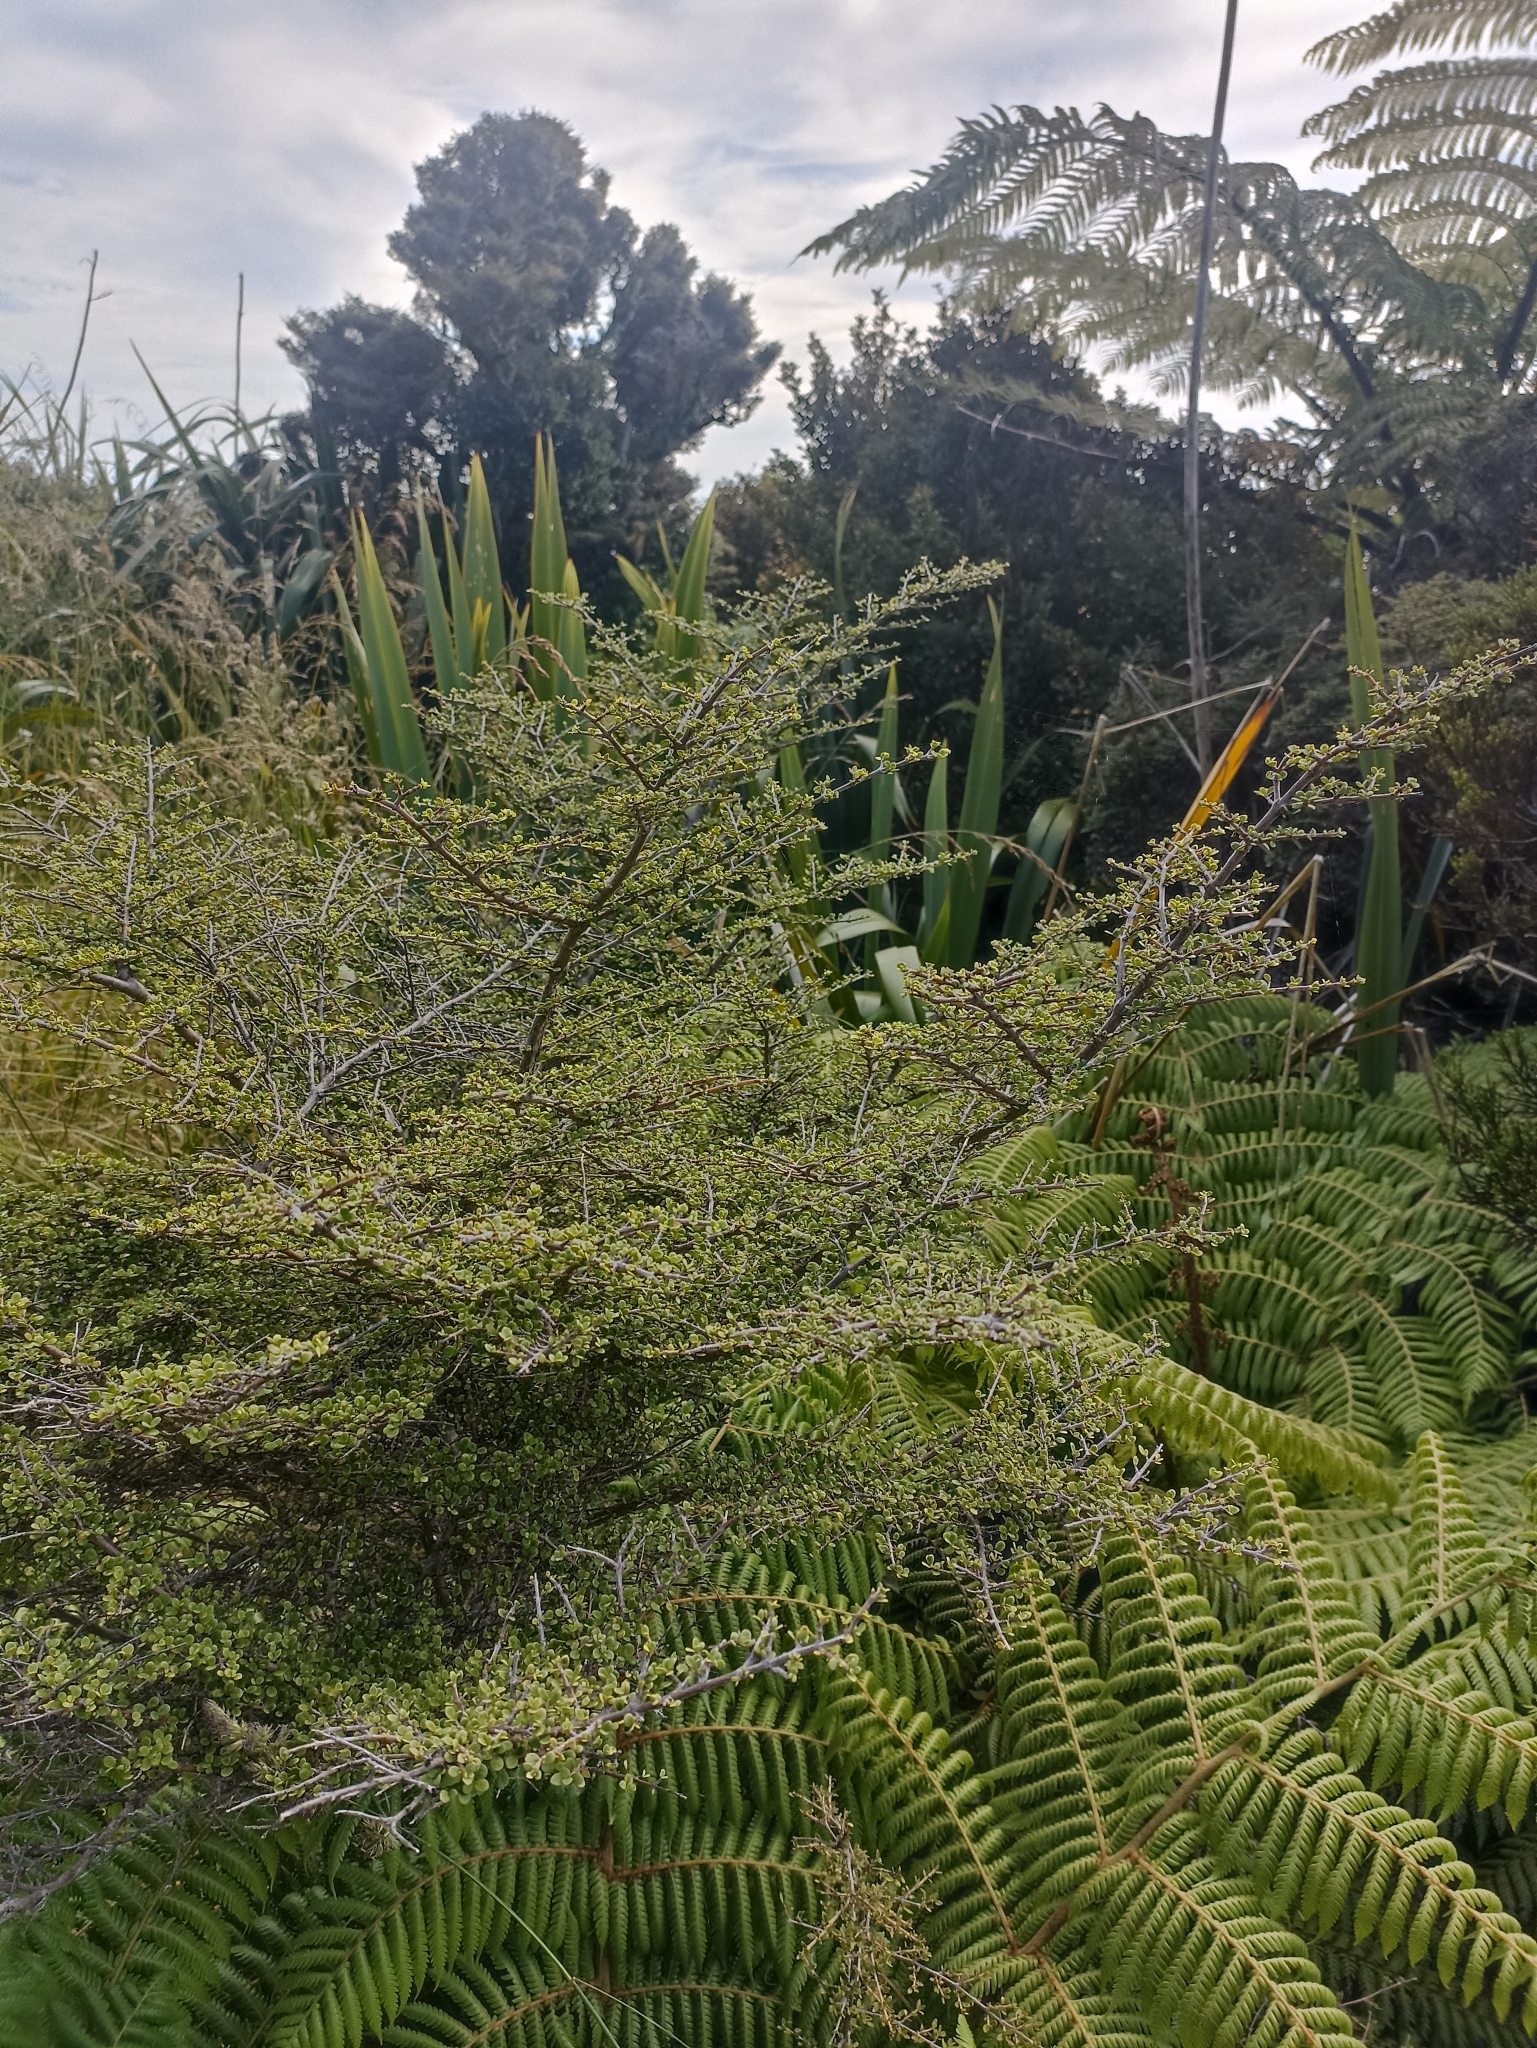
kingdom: Plantae
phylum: Tracheophyta
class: Magnoliopsida
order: Gentianales
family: Rubiaceae
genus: Coprosma
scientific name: Coprosma parviflora
